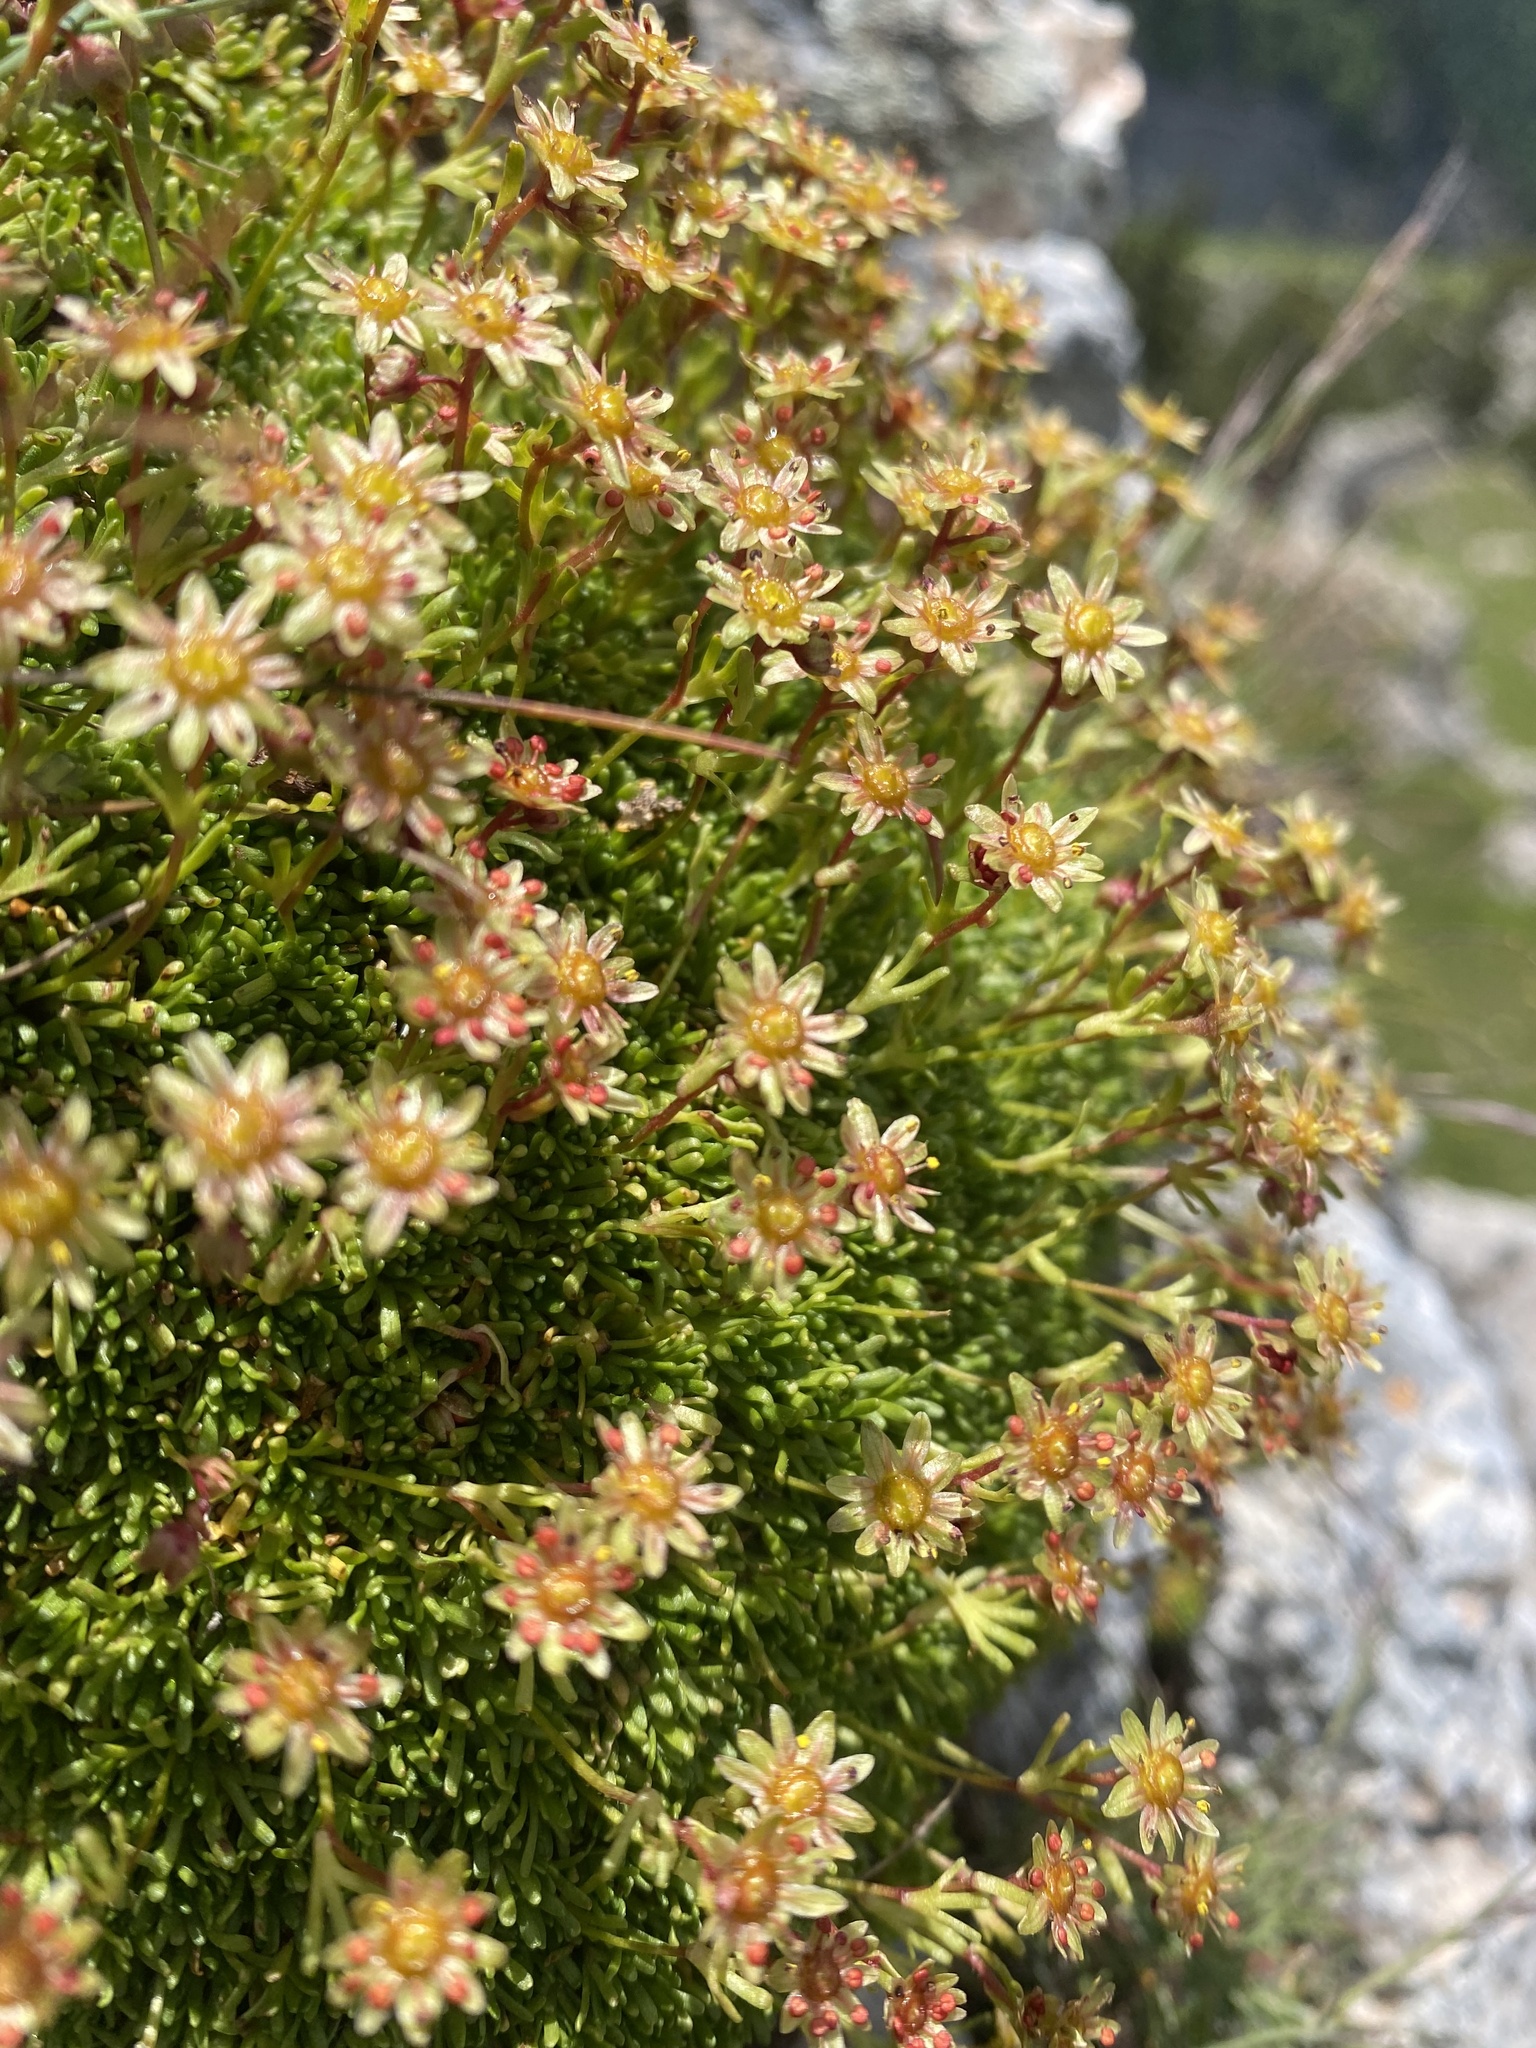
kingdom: Plantae
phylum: Tracheophyta
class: Magnoliopsida
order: Saxifragales
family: Saxifragaceae
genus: Saxifraga
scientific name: Saxifraga moschata
